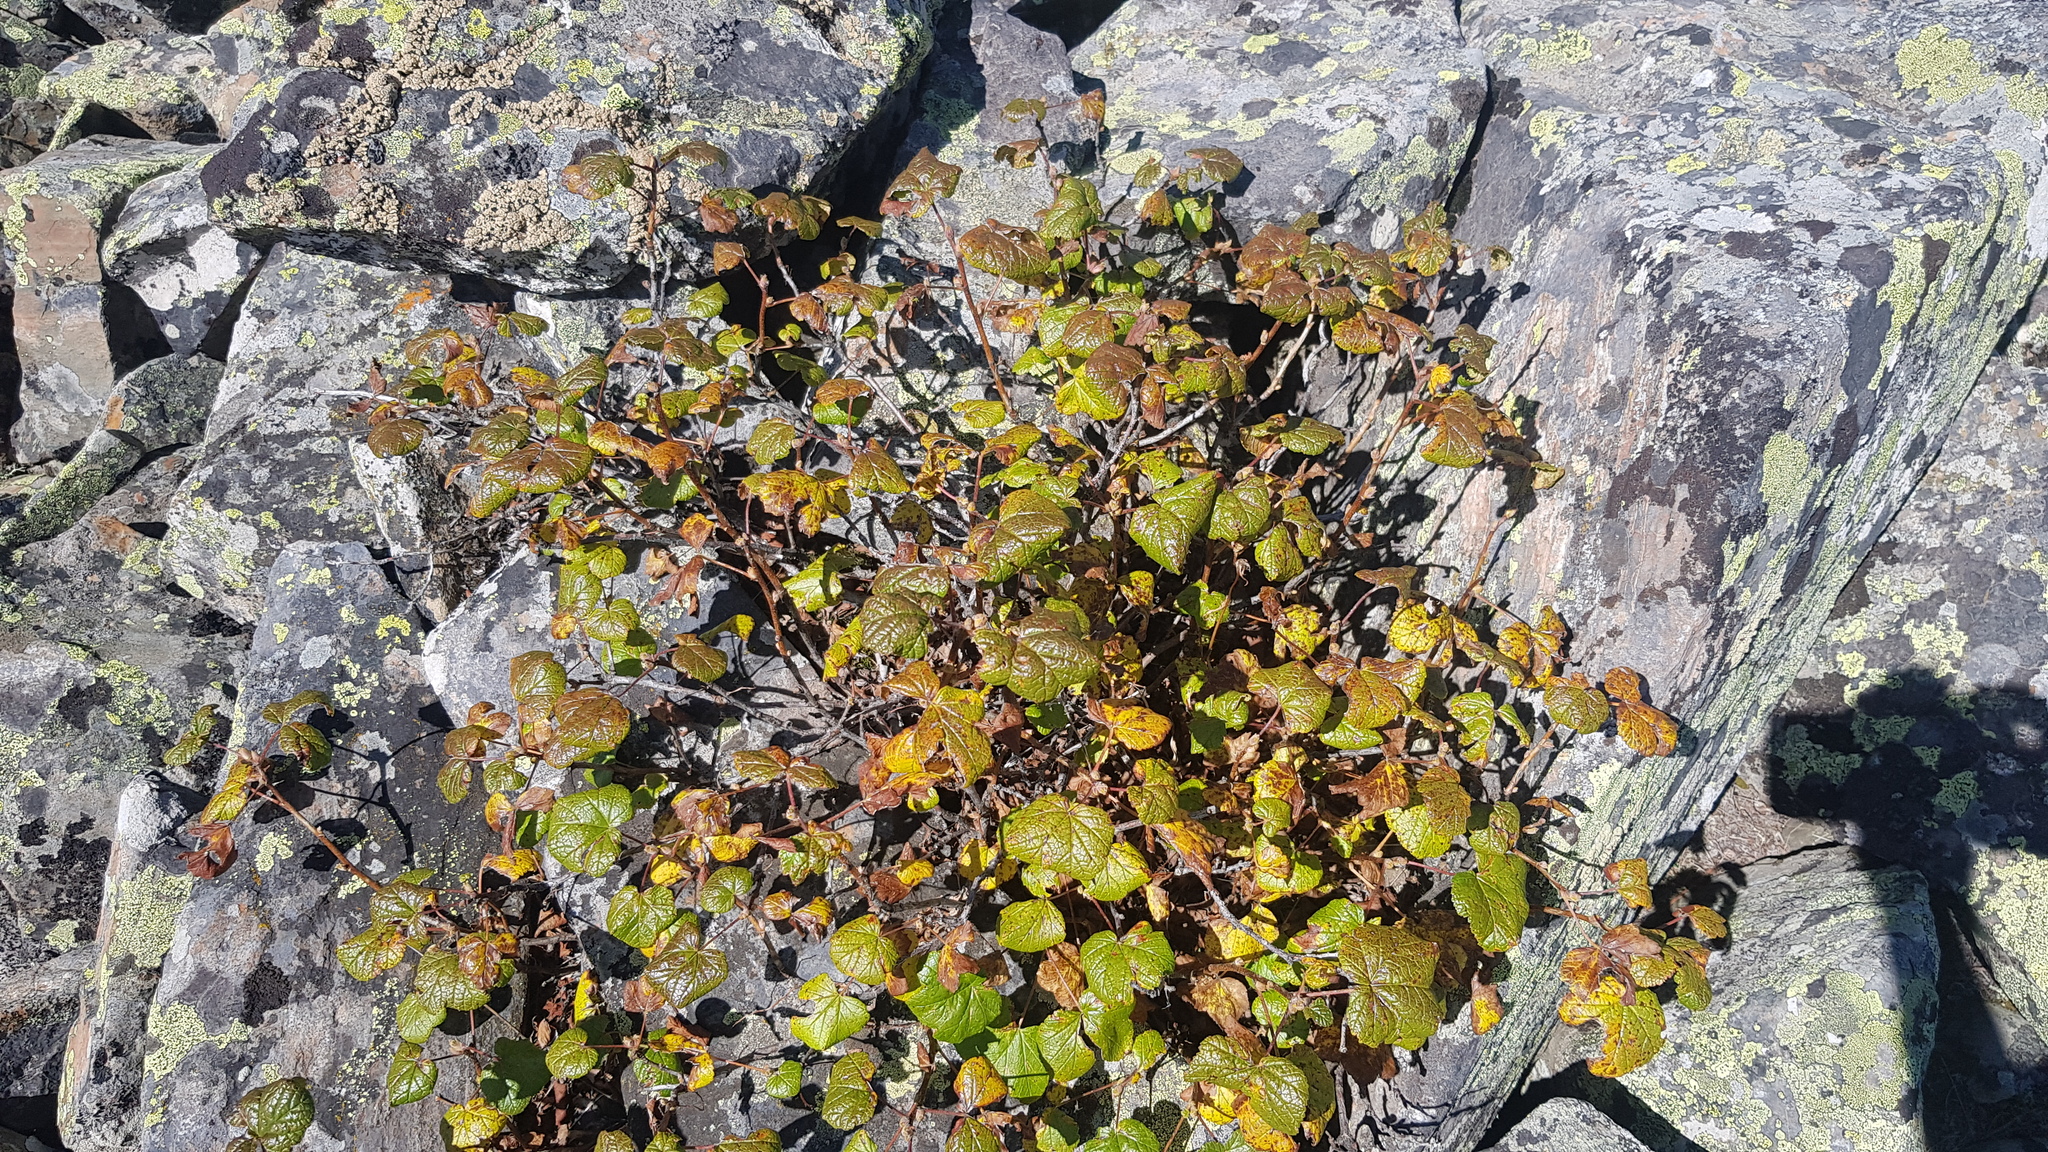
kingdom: Plantae
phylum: Tracheophyta
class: Magnoliopsida
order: Rosales
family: Rosaceae
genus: Rubus
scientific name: Rubus sachalinensis
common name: Red raspberry
